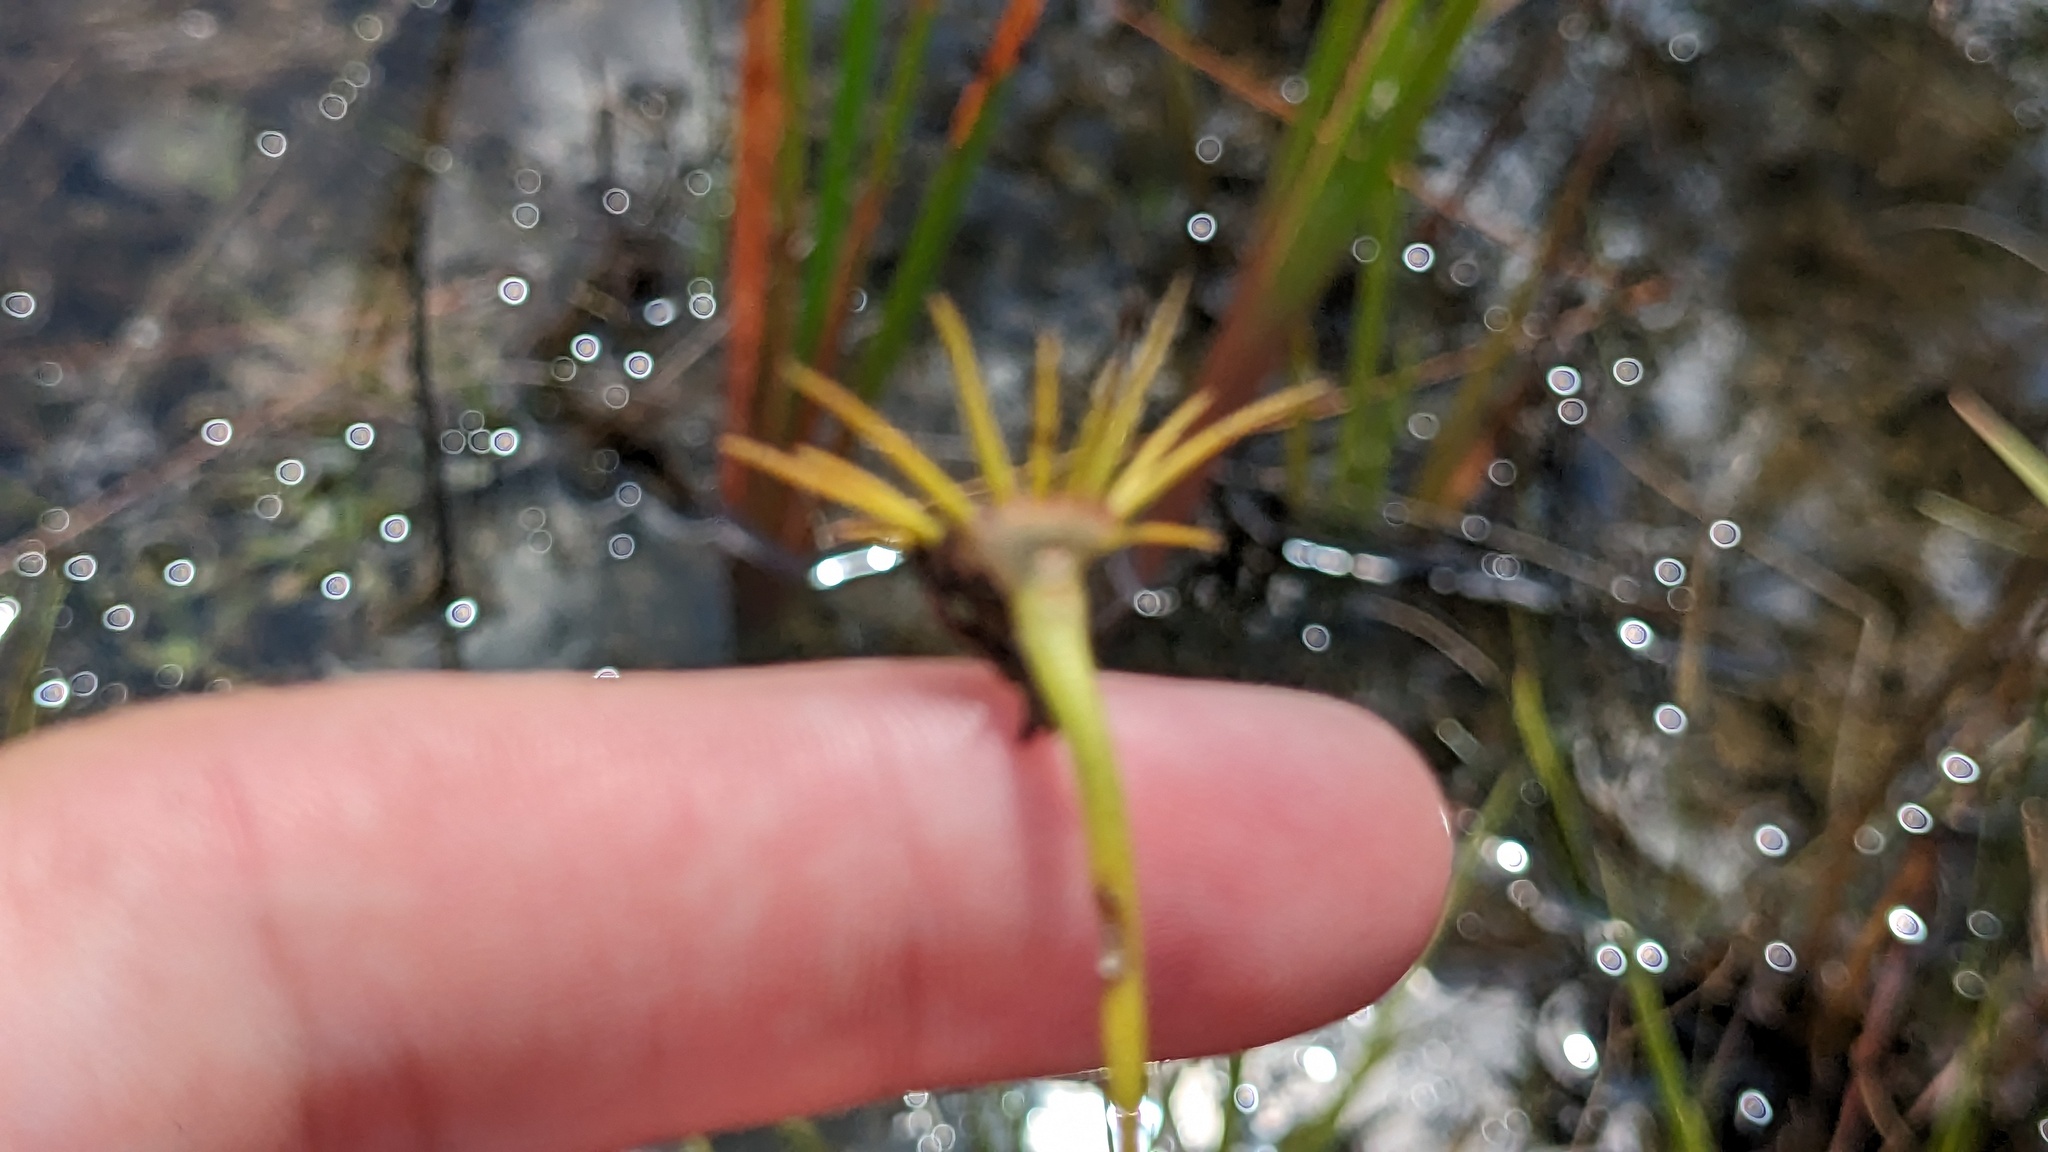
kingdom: Plantae
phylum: Tracheophyta
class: Magnoliopsida
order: Gentianales
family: Gentianaceae
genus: Sabatia
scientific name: Sabatia decandra
